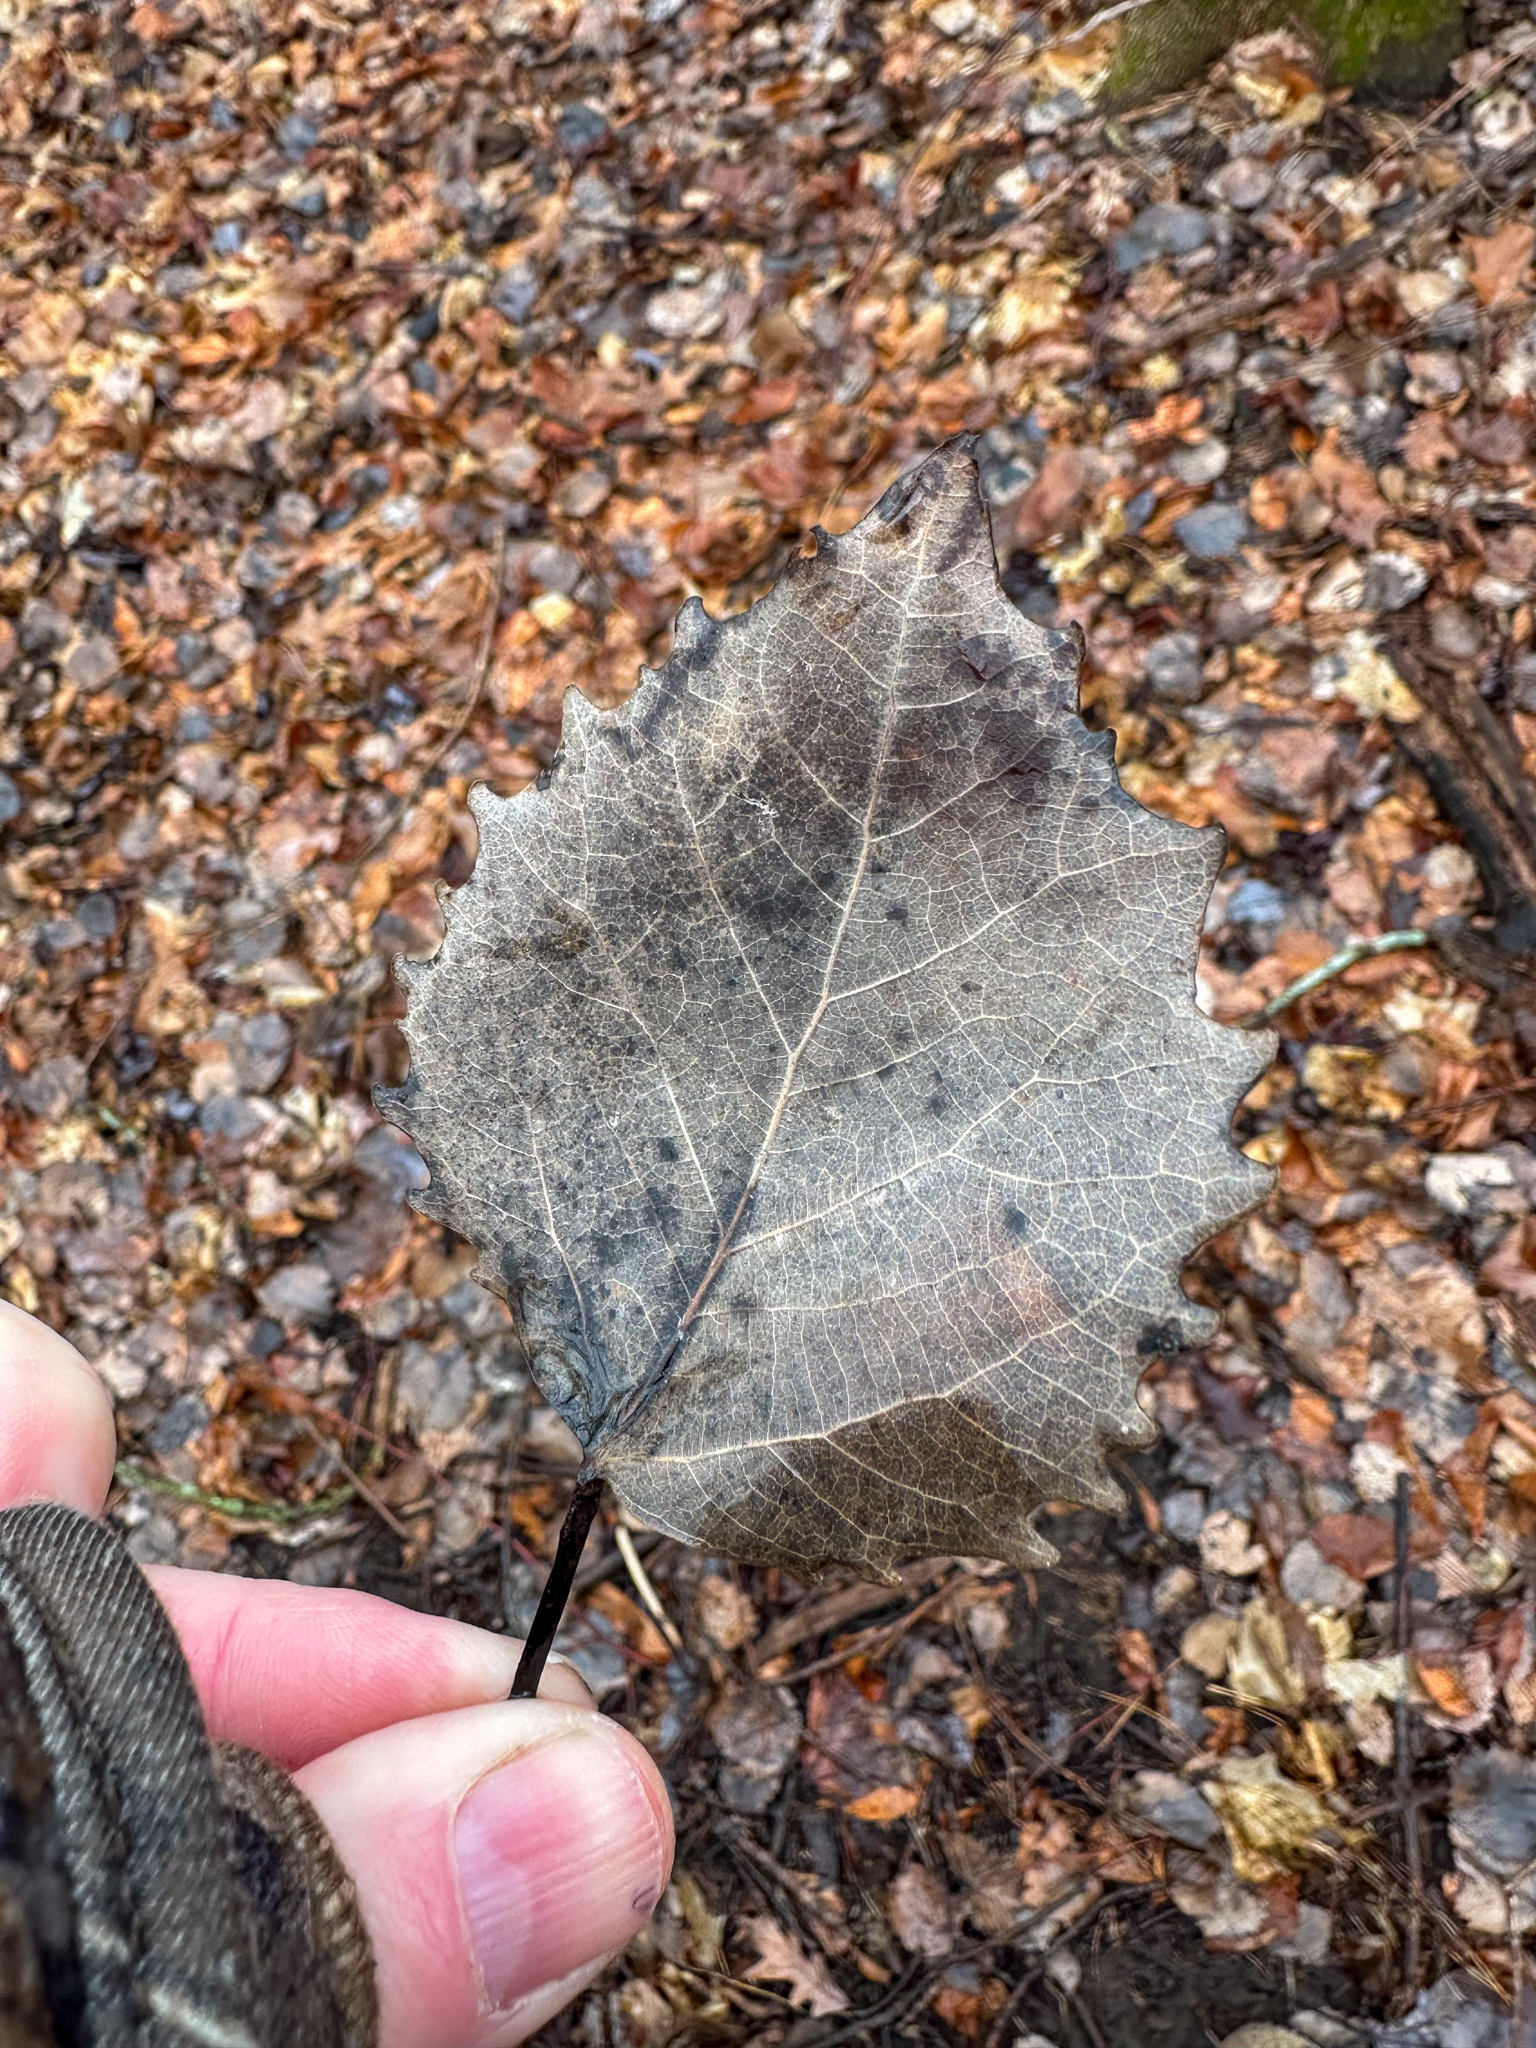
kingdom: Plantae
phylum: Tracheophyta
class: Magnoliopsida
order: Malpighiales
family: Salicaceae
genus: Populus
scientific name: Populus grandidentata
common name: Bigtooth aspen
